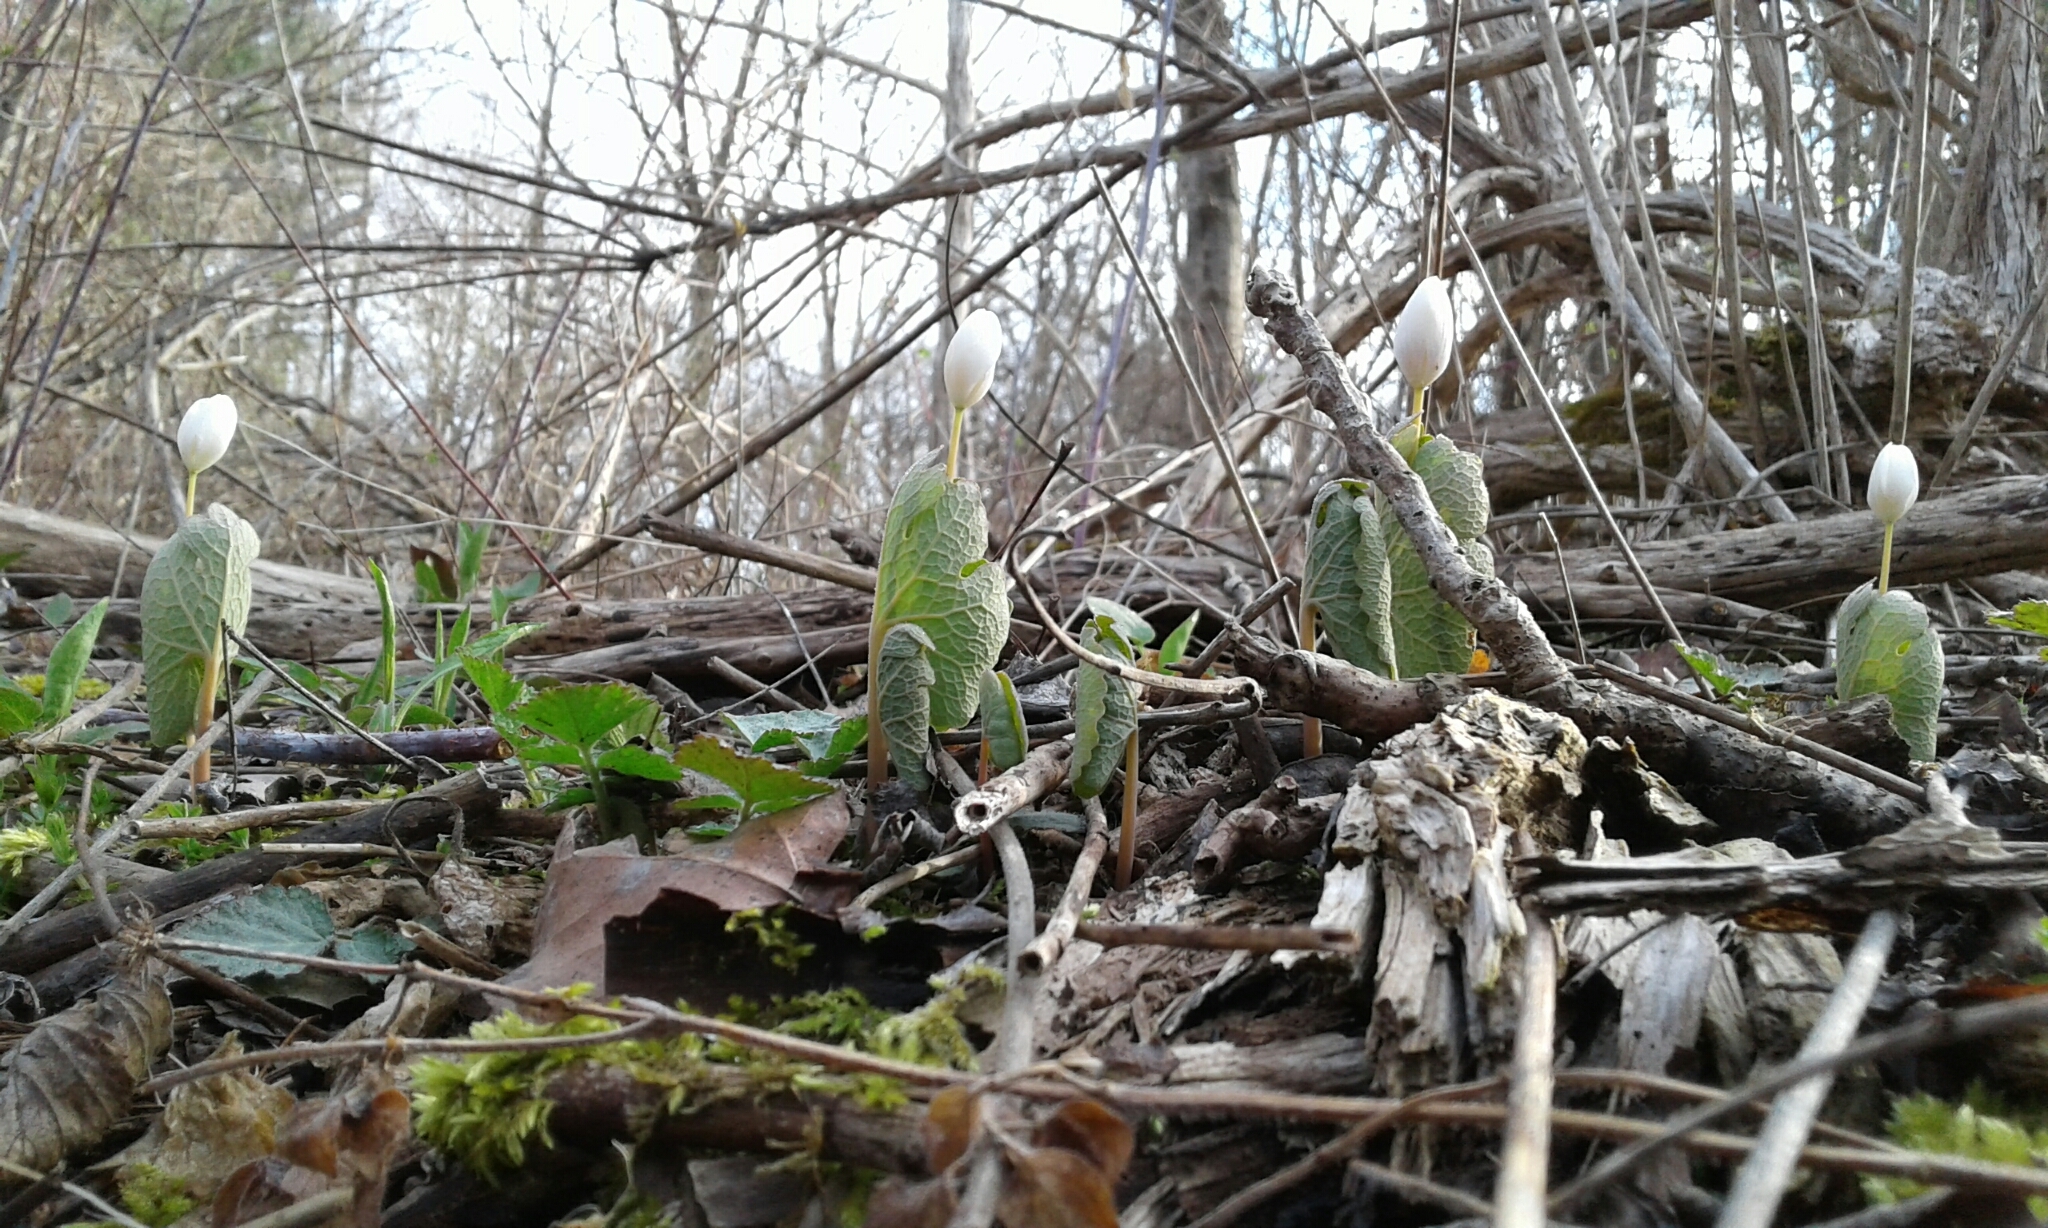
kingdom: Plantae
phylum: Tracheophyta
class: Magnoliopsida
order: Ranunculales
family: Papaveraceae
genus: Sanguinaria
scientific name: Sanguinaria canadensis
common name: Bloodroot
